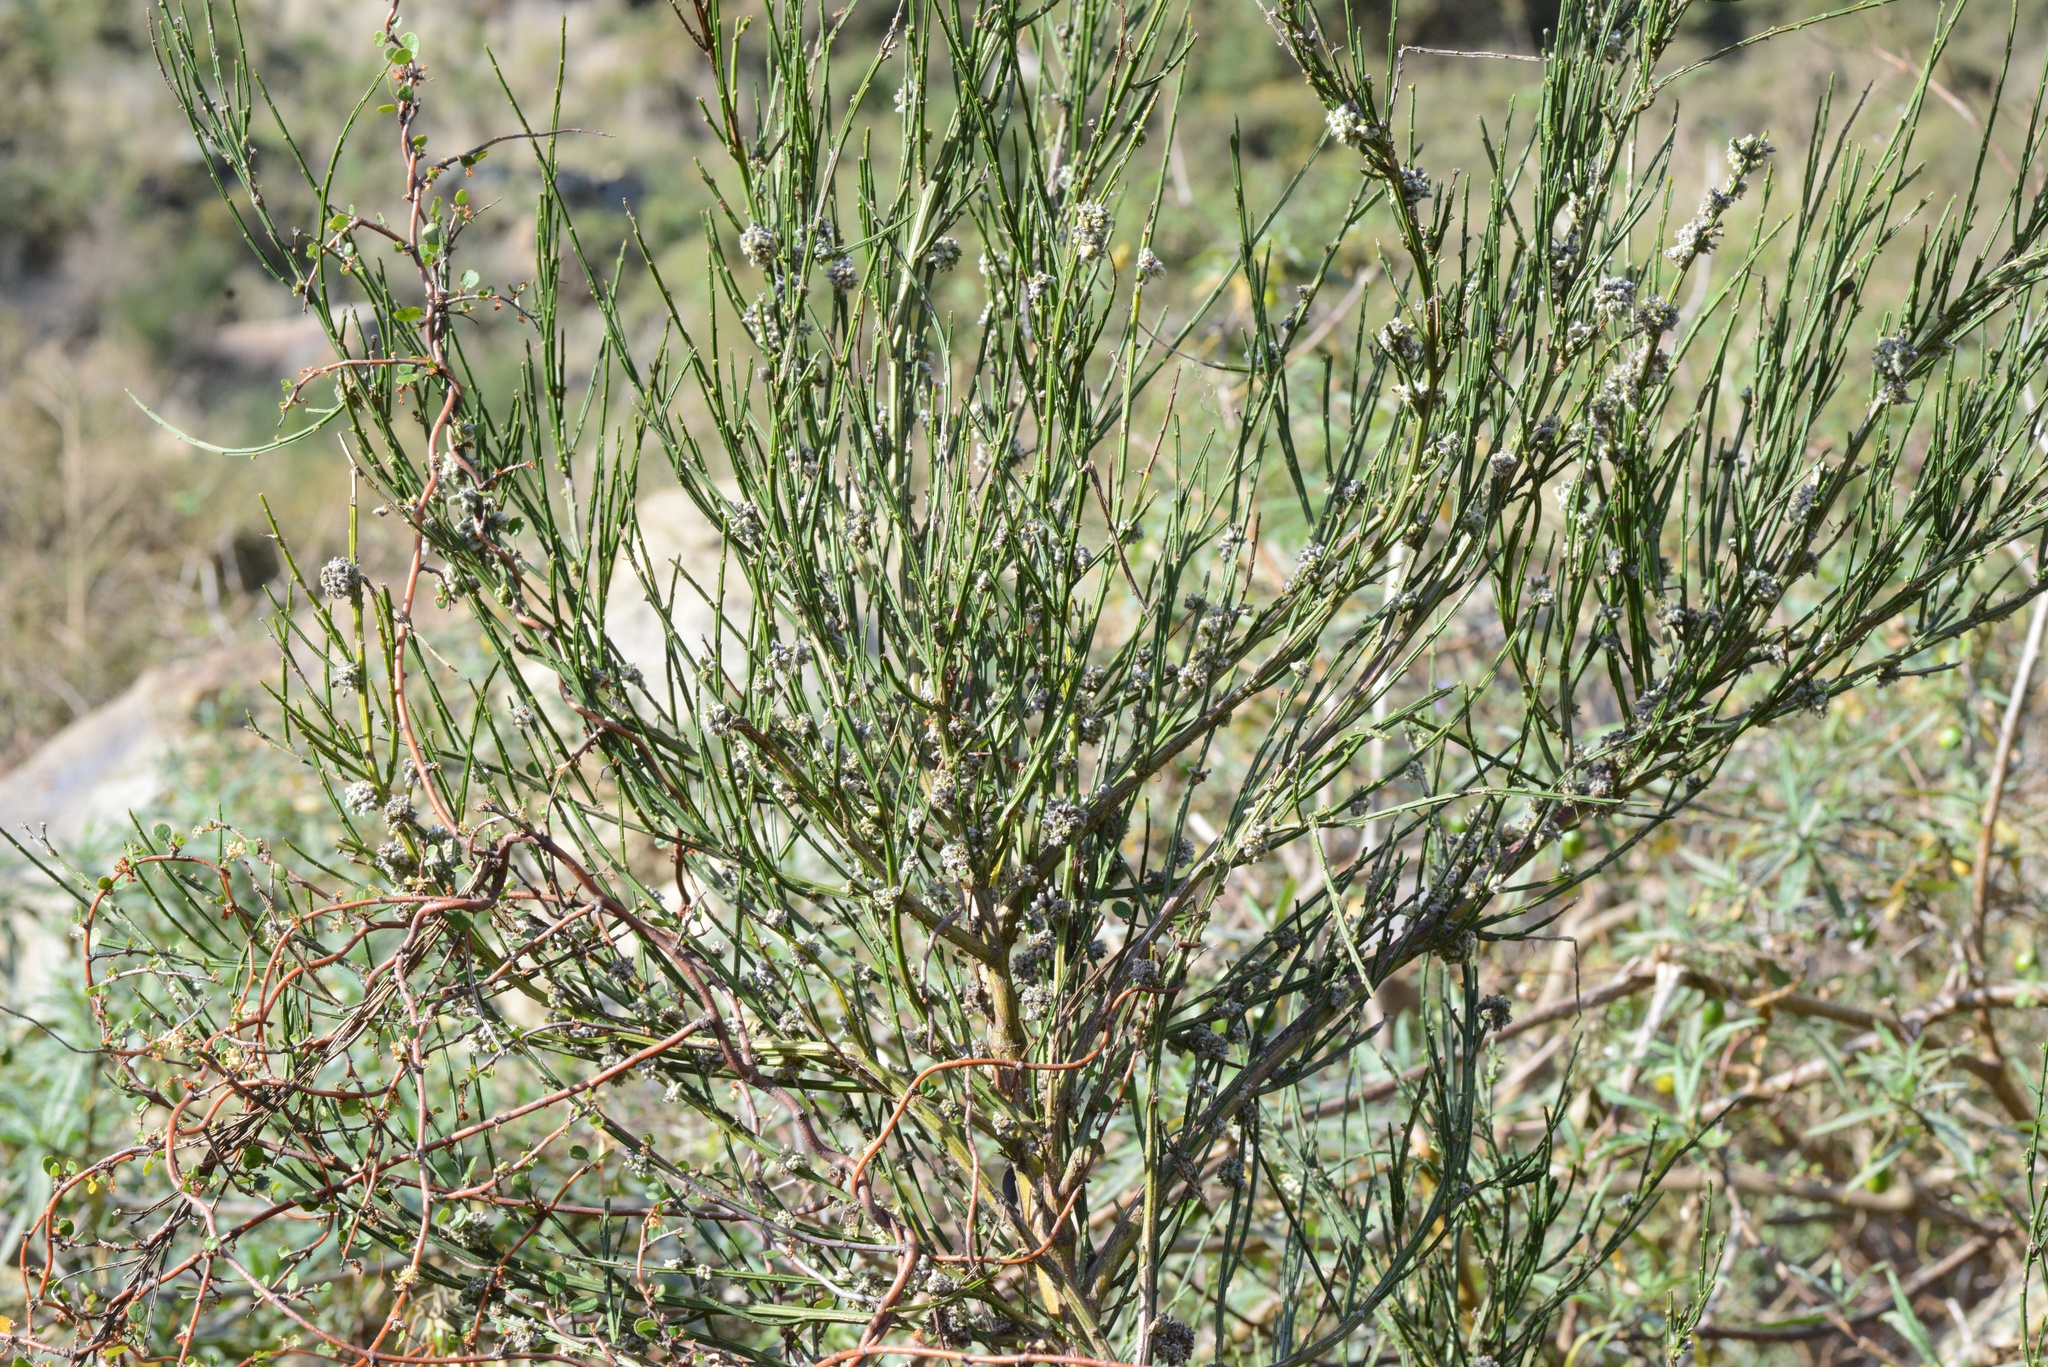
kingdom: Animalia
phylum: Arthropoda
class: Arachnida
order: Trombidiformes
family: Eriophyidae
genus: Aceria
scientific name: Aceria genistae
